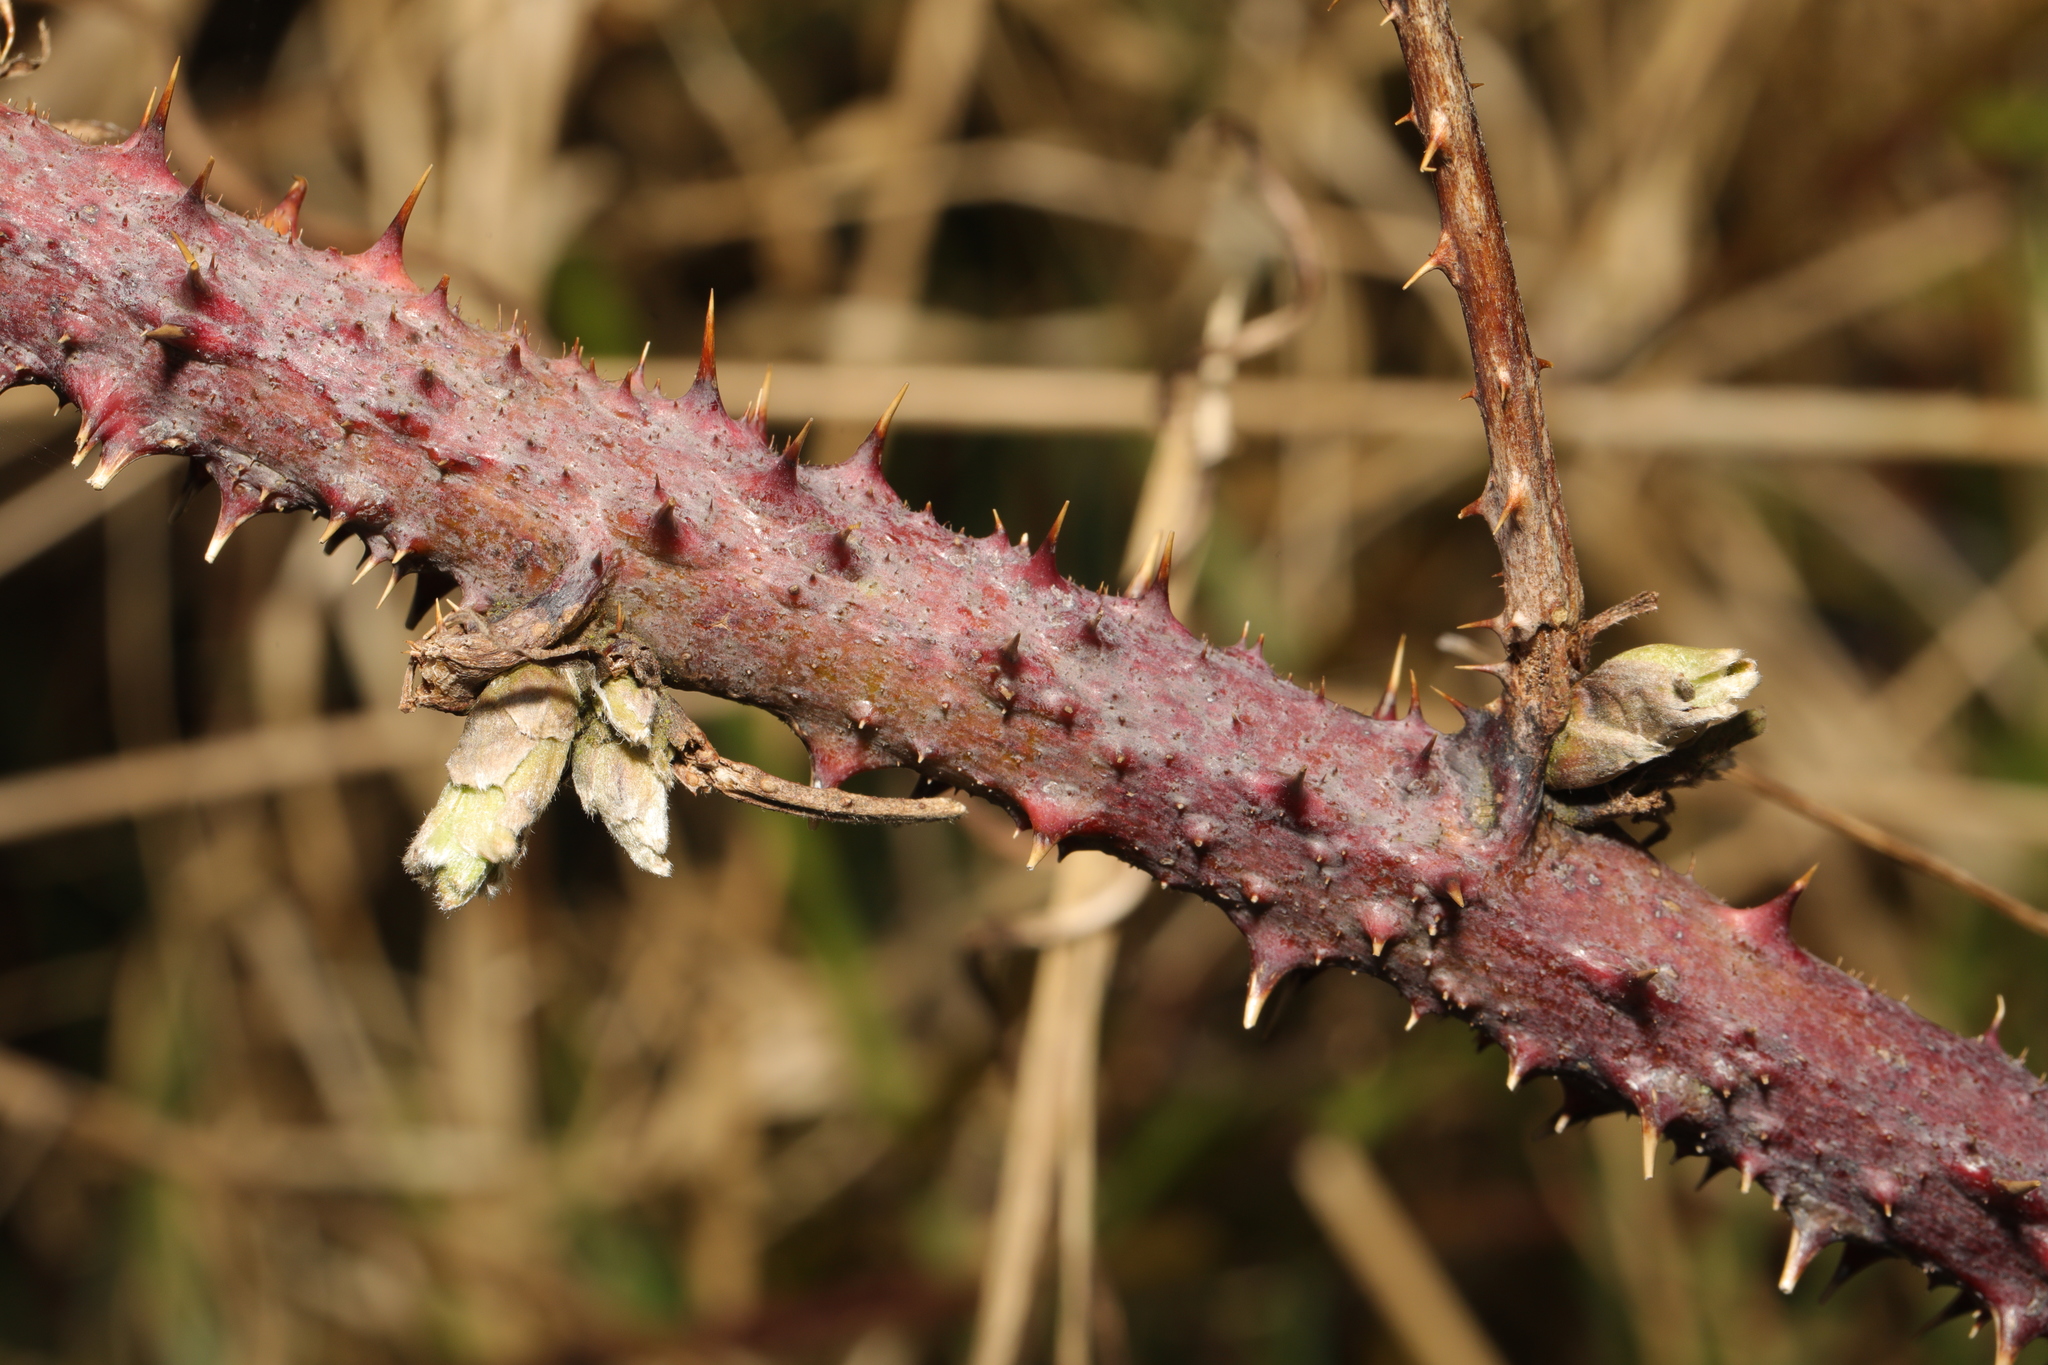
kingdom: Plantae
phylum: Tracheophyta
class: Magnoliopsida
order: Rosales
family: Rosaceae
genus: Rubus
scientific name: Rubus horrefactus
